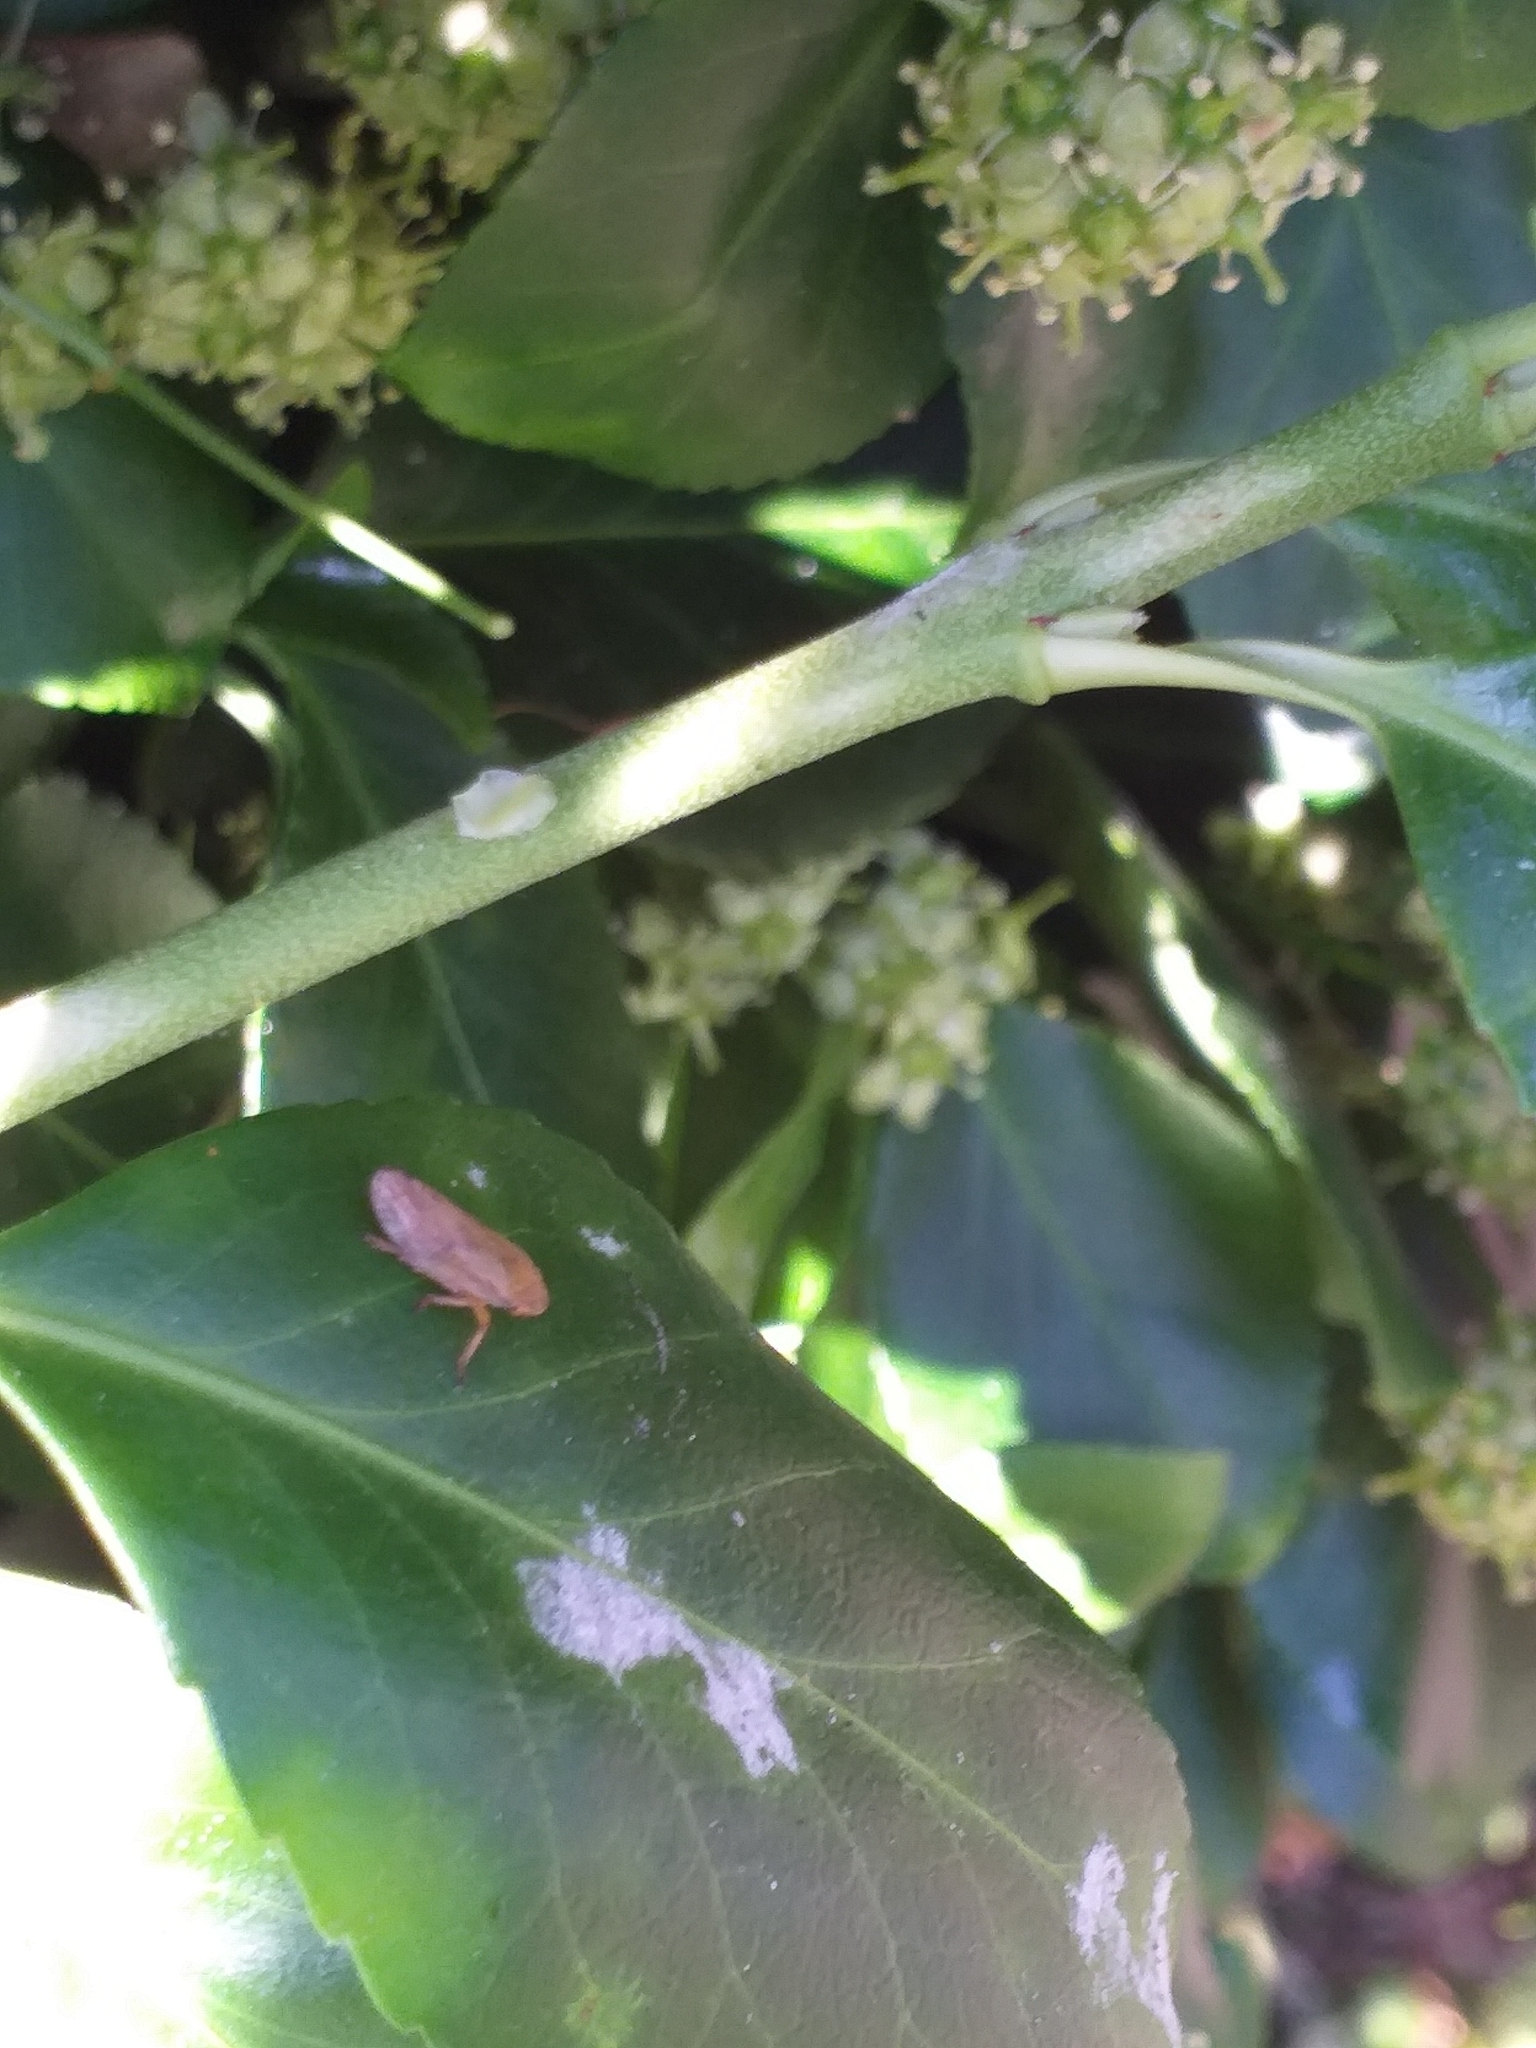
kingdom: Animalia
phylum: Arthropoda
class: Insecta
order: Hemiptera
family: Aphrophoridae
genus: Philaenus
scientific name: Philaenus spumarius
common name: Meadow spittlebug
